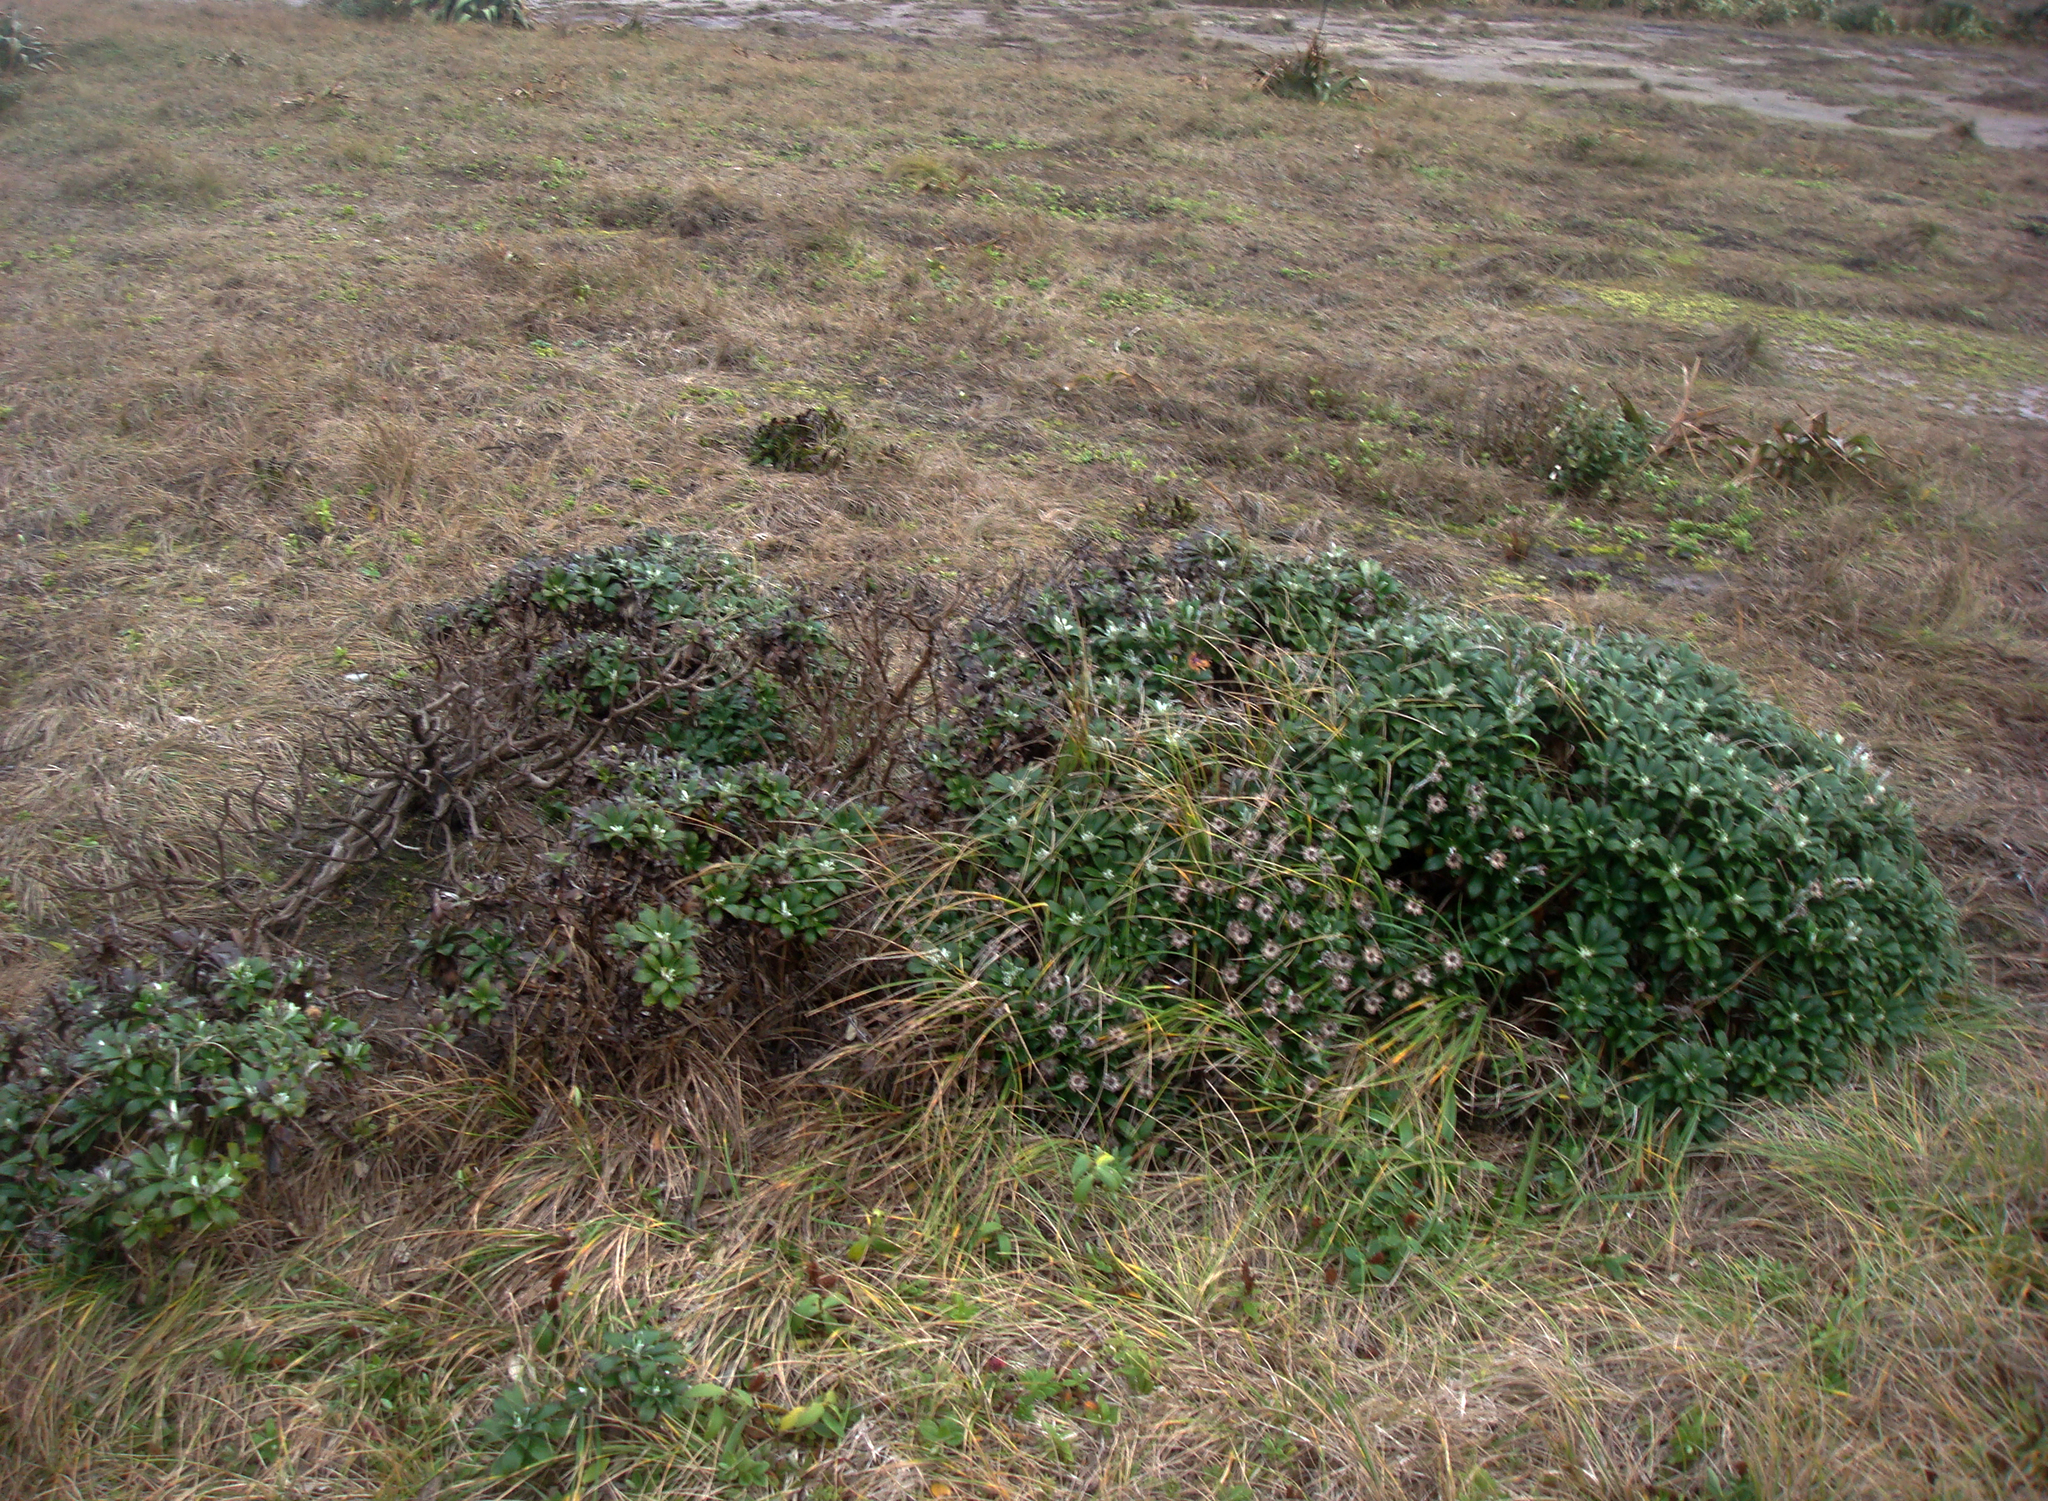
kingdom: Plantae
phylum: Tracheophyta
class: Magnoliopsida
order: Asterales
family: Asteraceae
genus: Macrolearia
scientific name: Macrolearia chathamica
